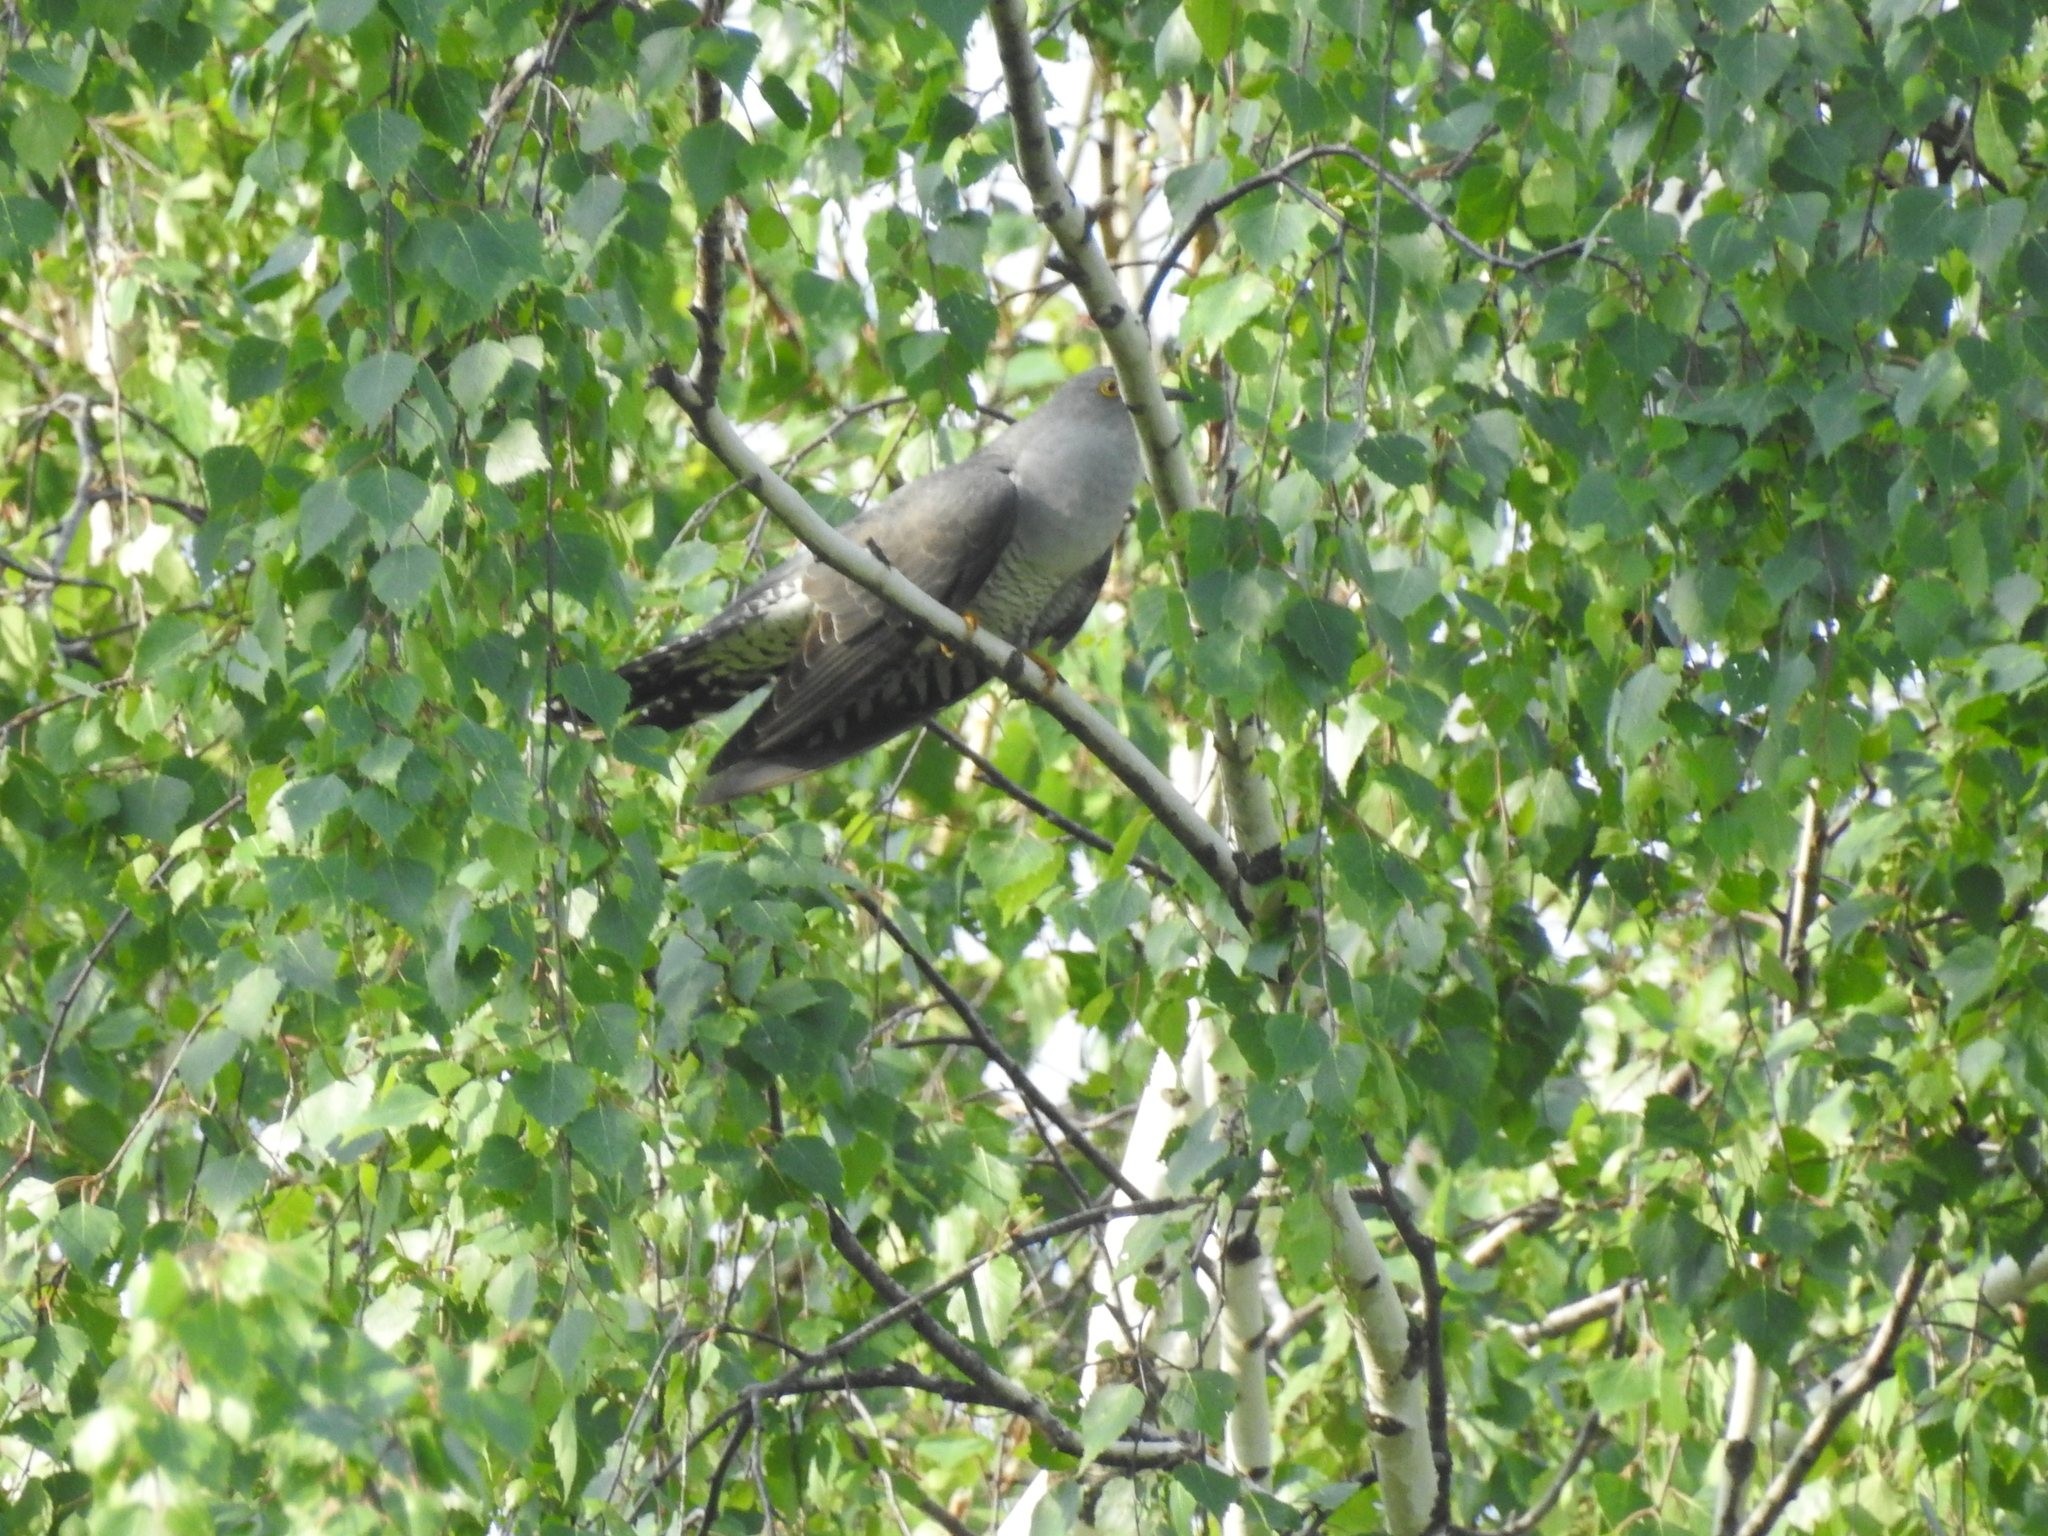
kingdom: Animalia
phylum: Chordata
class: Aves
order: Cuculiformes
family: Cuculidae
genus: Cuculus
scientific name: Cuculus canorus
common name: Common cuckoo
